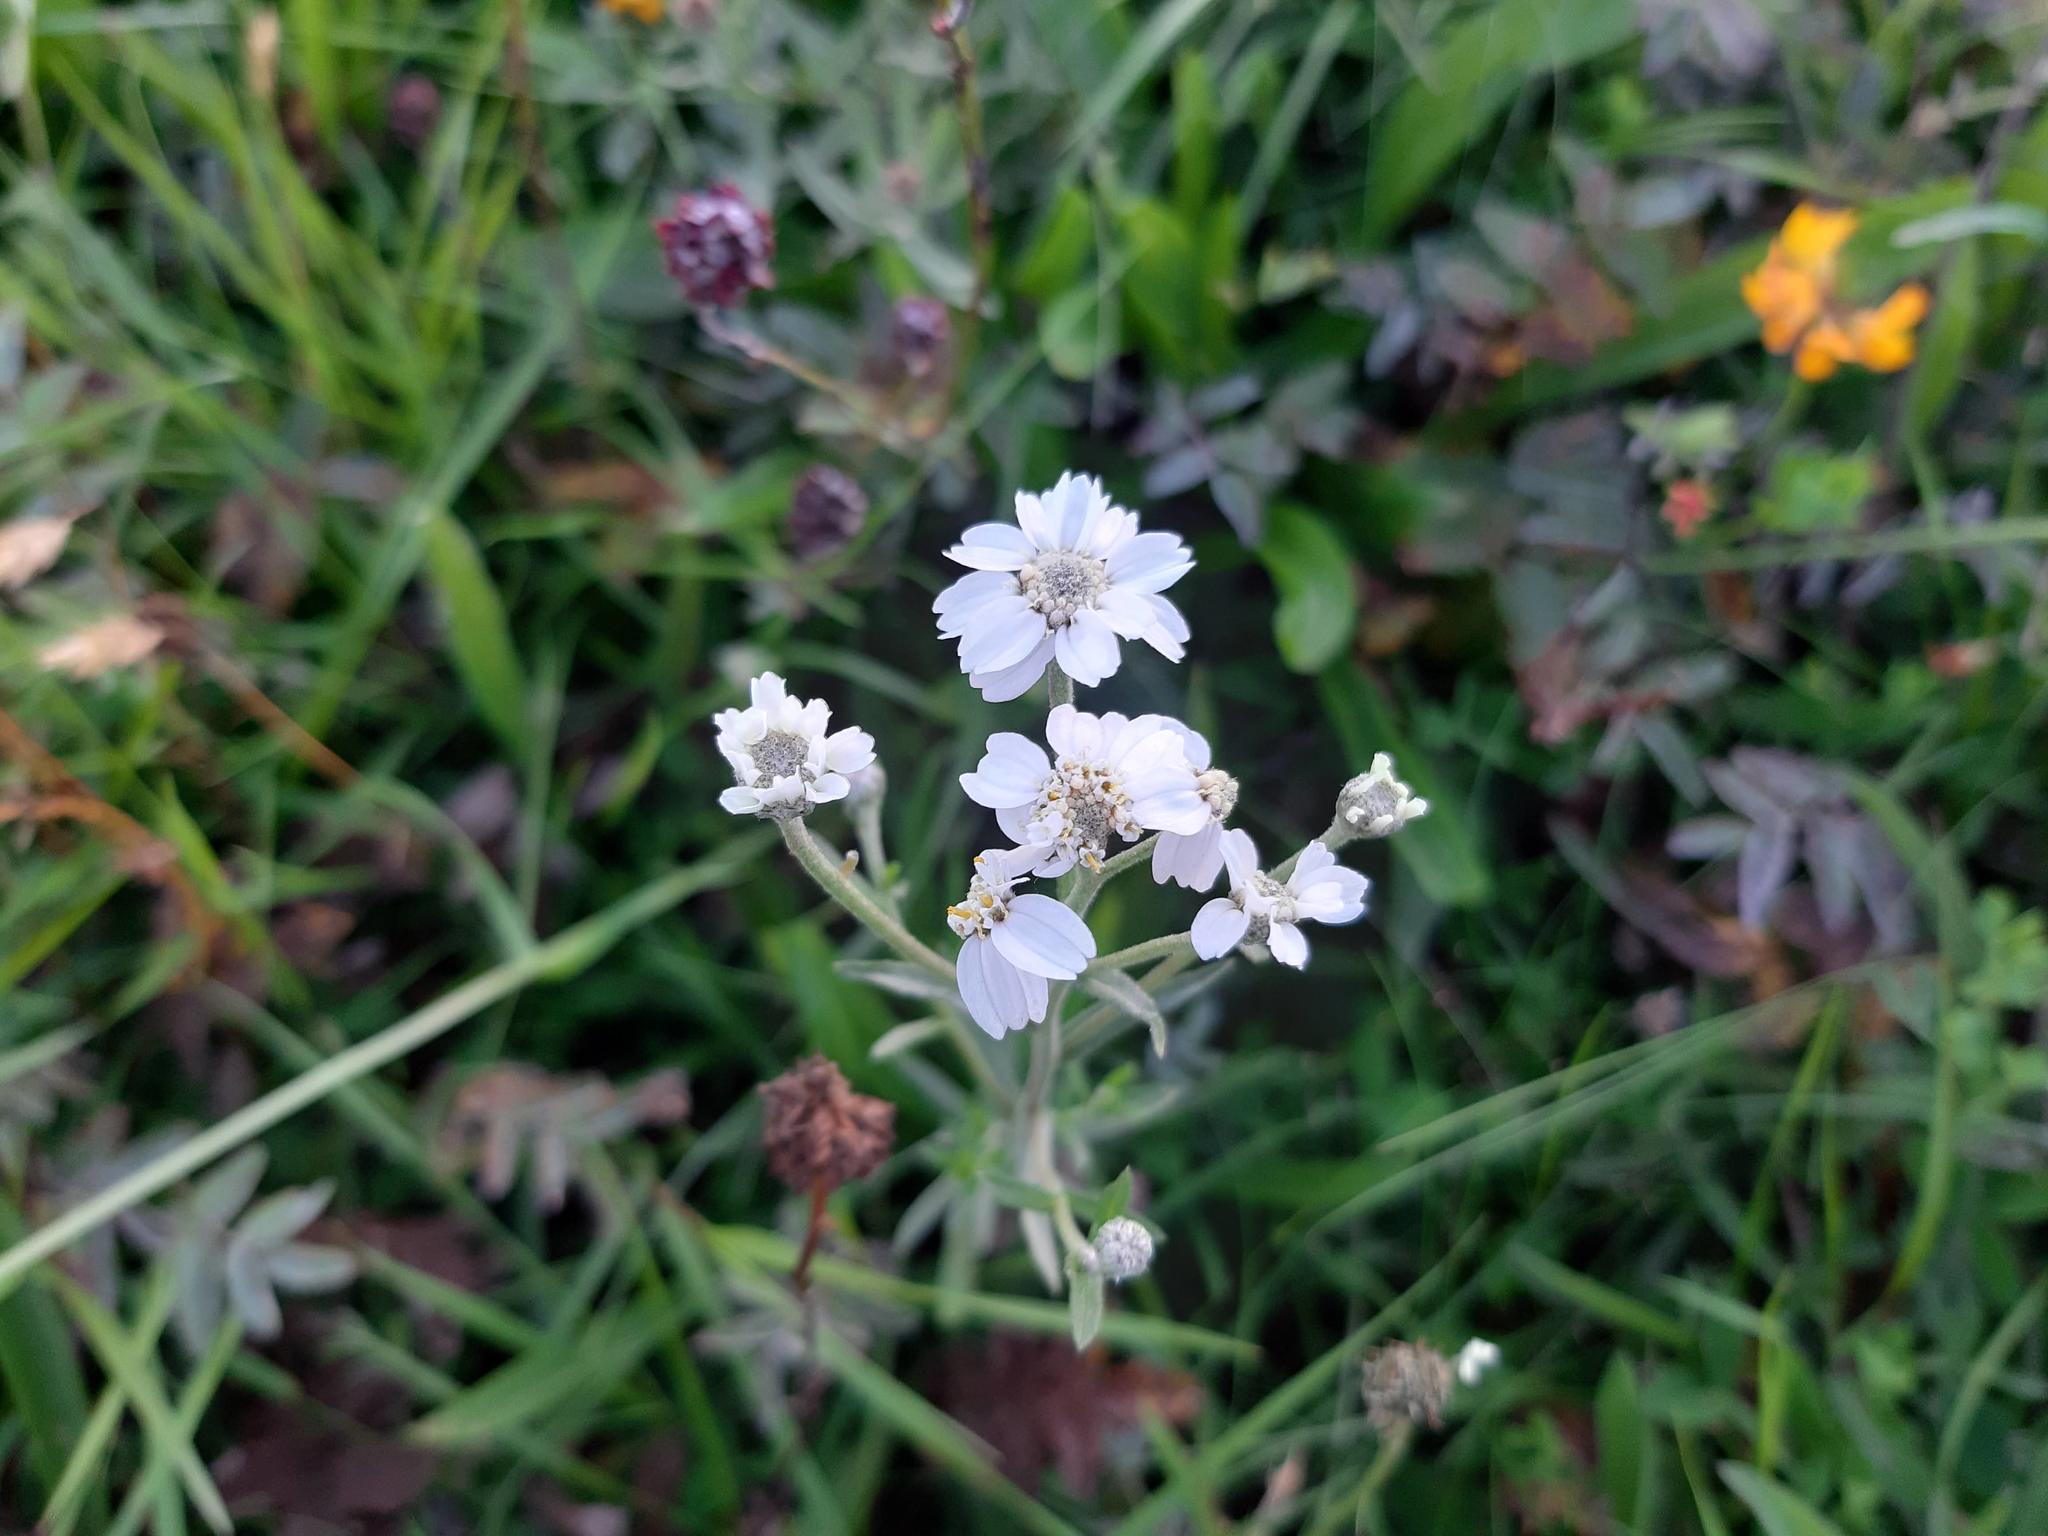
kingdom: Plantae
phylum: Tracheophyta
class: Magnoliopsida
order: Asterales
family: Asteraceae
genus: Achillea
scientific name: Achillea ptarmica
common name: Sneezeweed
